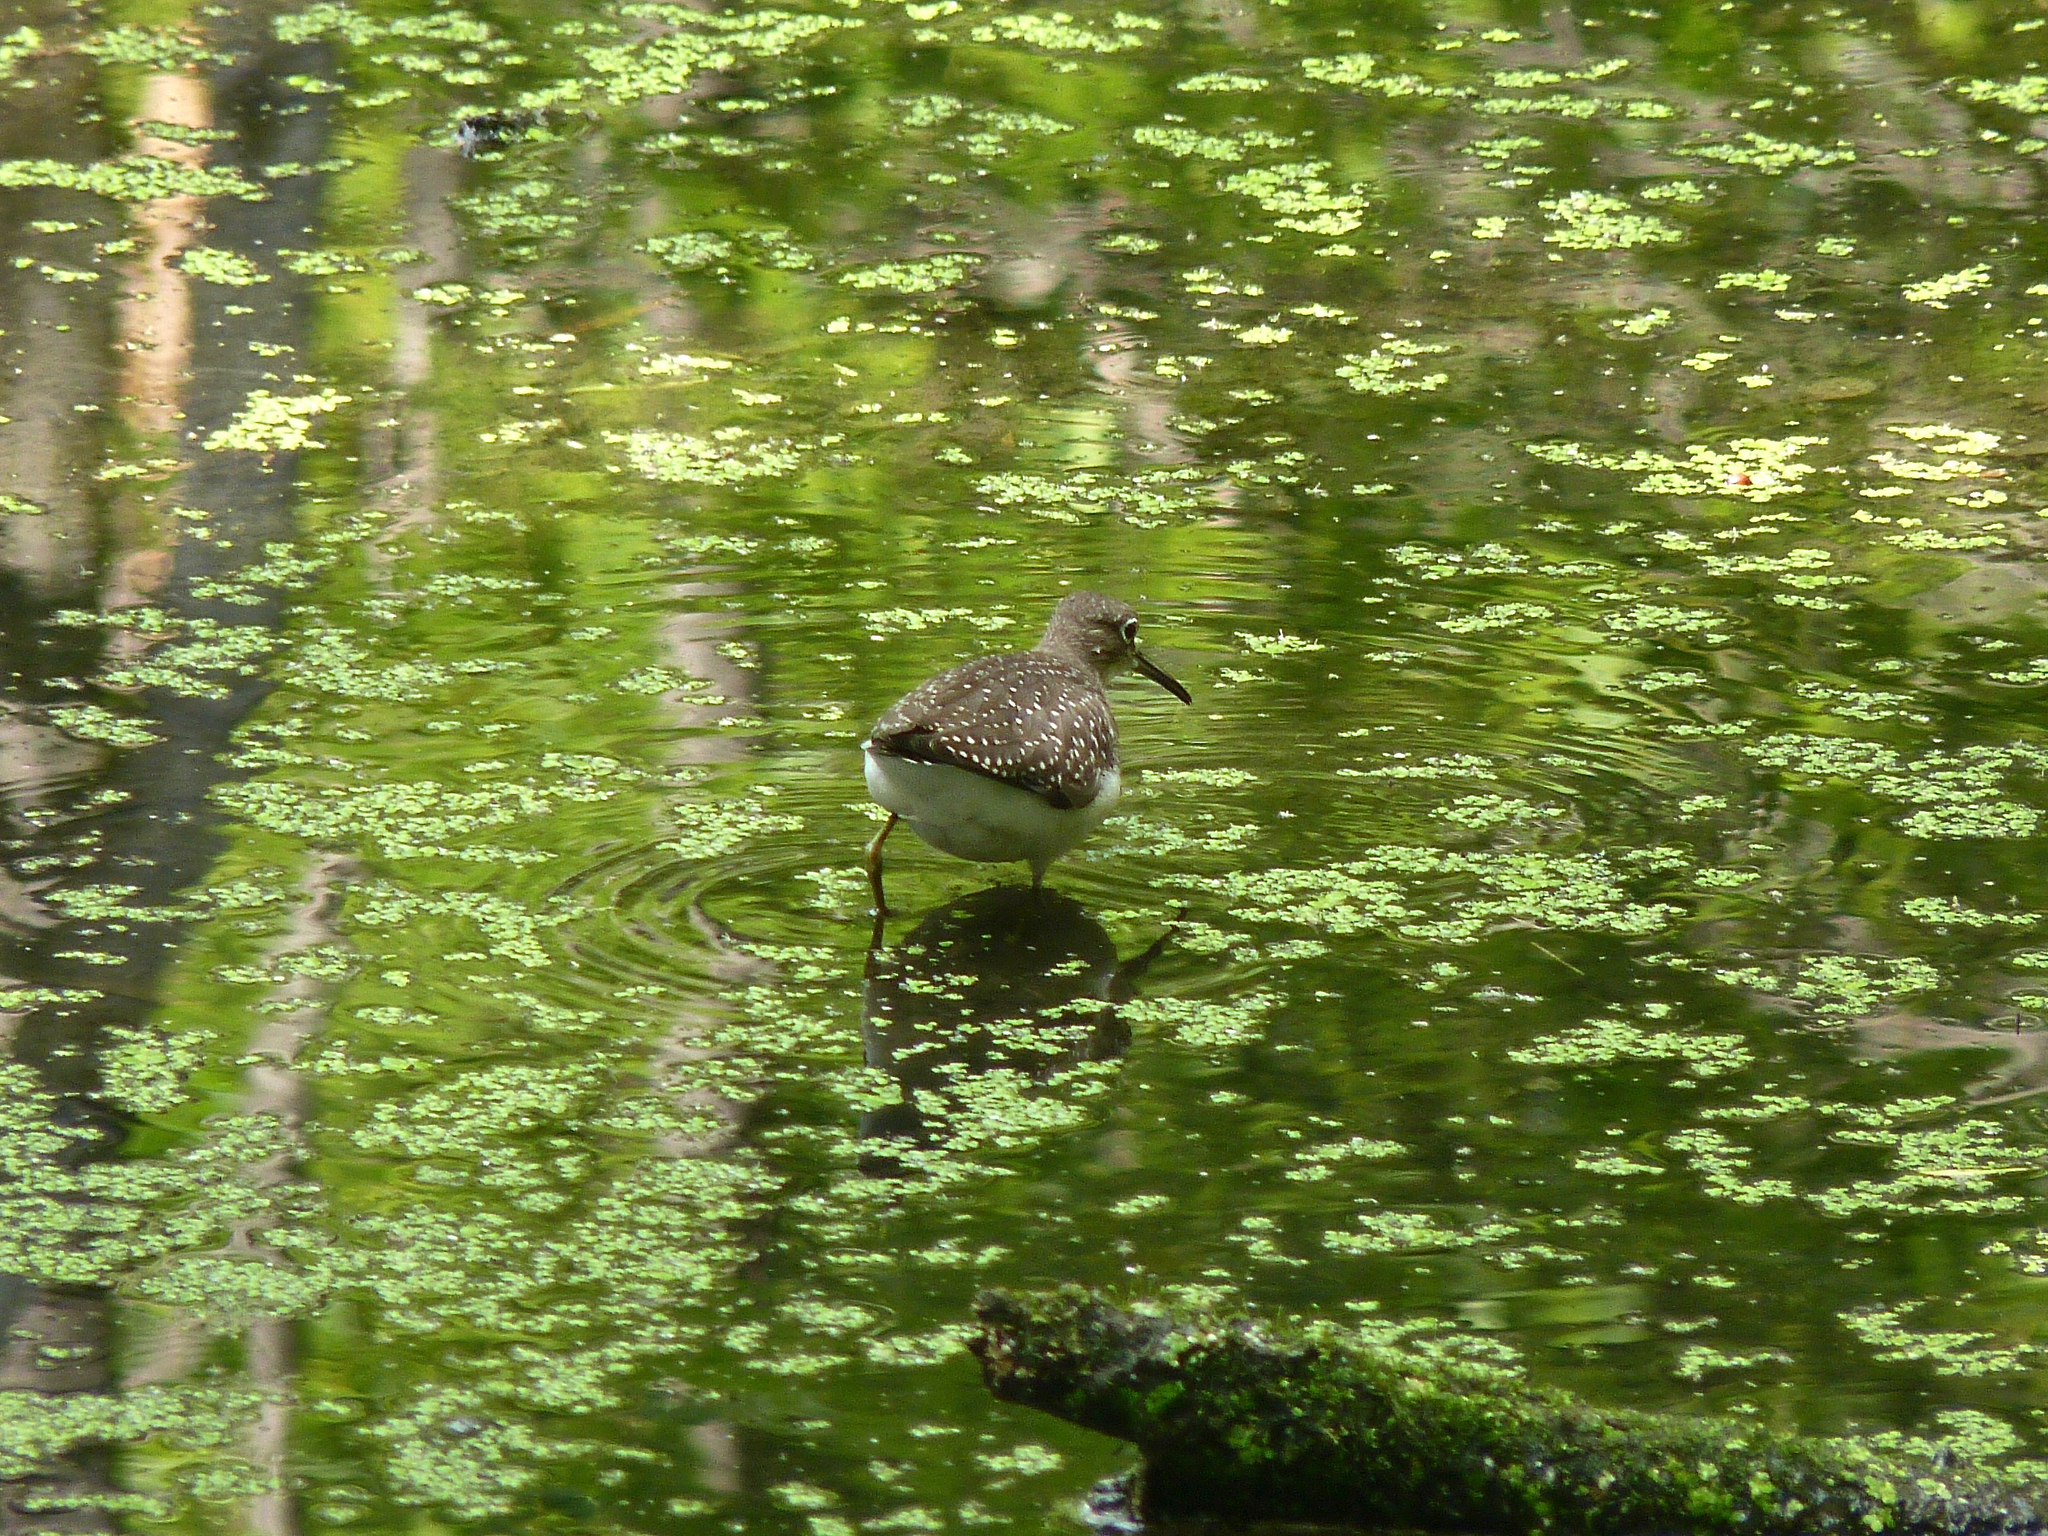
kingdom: Animalia
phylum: Chordata
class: Aves
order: Charadriiformes
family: Scolopacidae
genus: Tringa
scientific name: Tringa solitaria
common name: Solitary sandpiper
